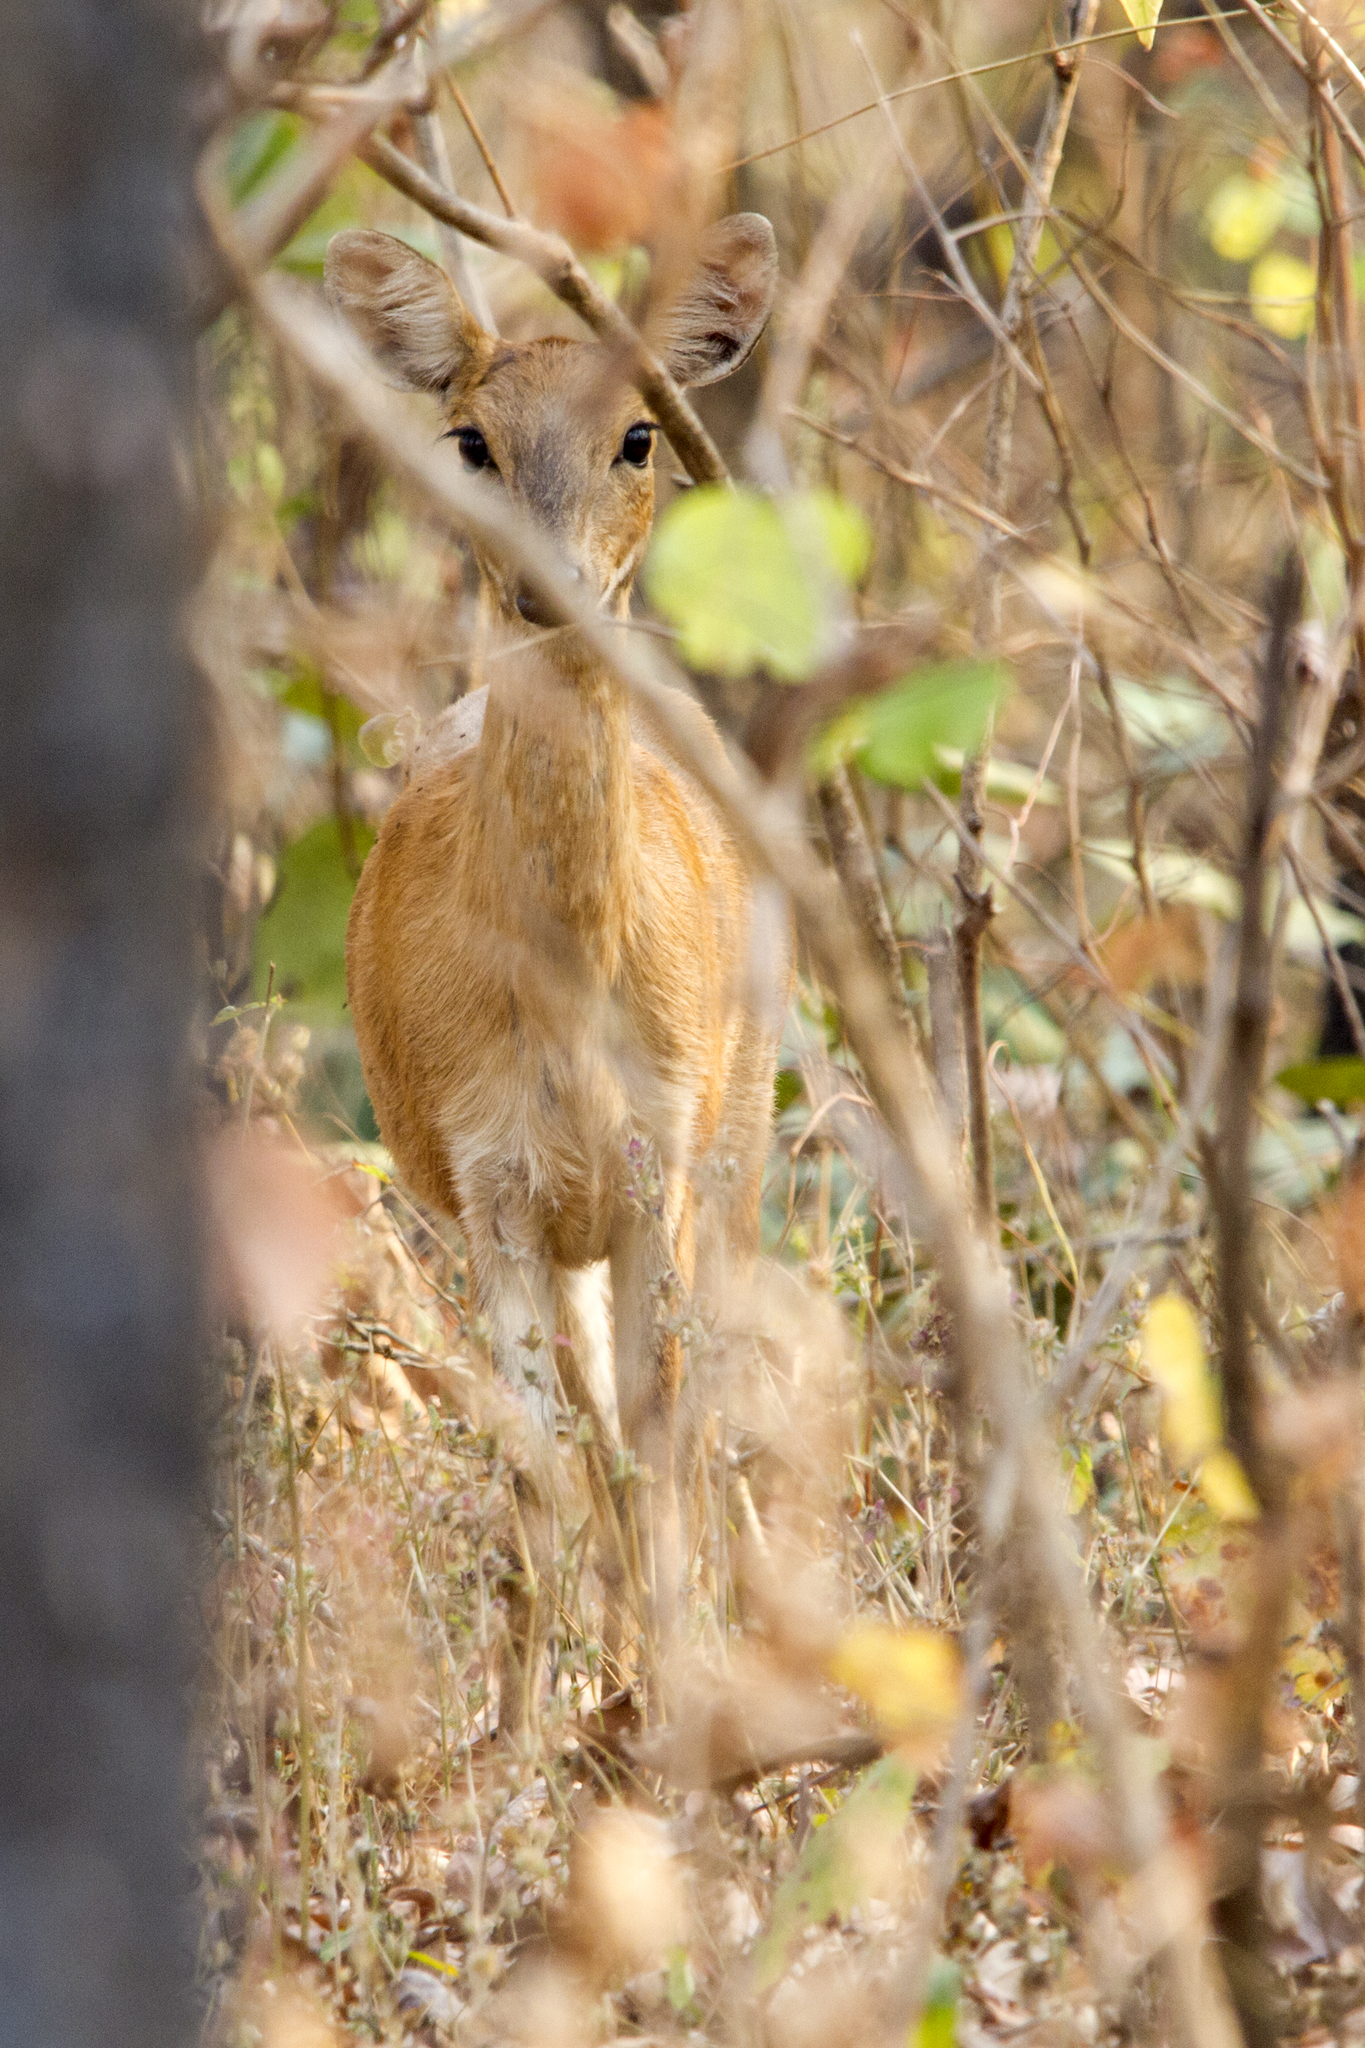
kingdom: Animalia
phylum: Chordata
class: Mammalia
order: Artiodactyla
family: Bovidae
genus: Tetracerus
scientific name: Tetracerus quadricornis
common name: Four-horned antelope
